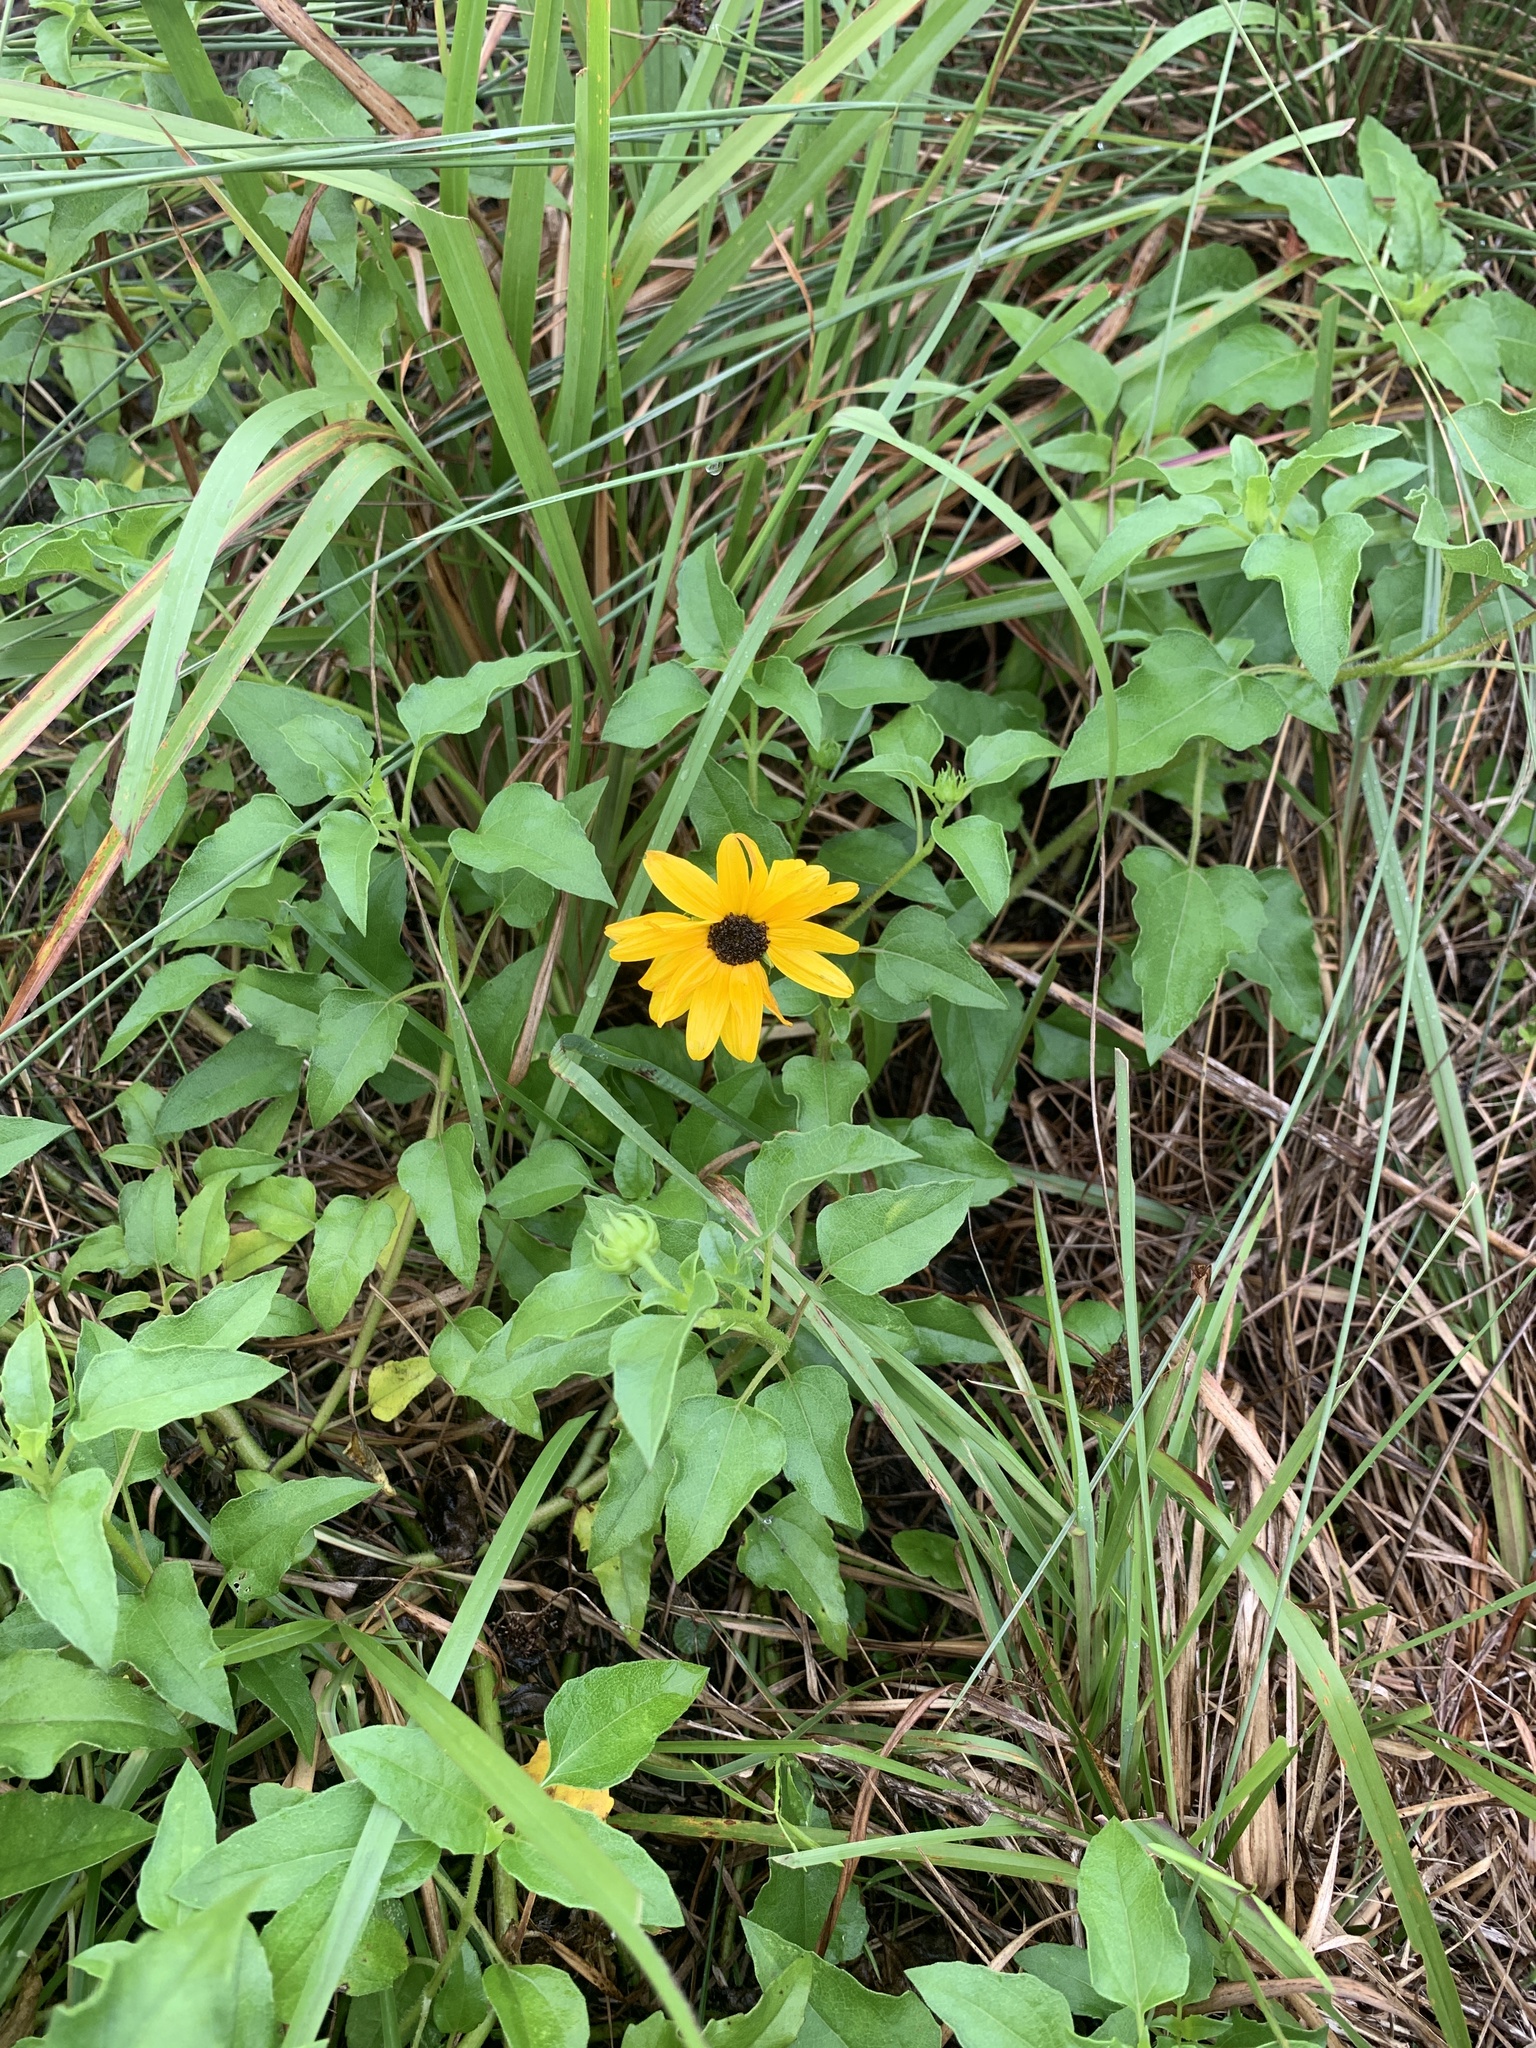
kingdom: Plantae
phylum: Tracheophyta
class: Magnoliopsida
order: Asterales
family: Asteraceae
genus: Helianthus
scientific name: Helianthus debilis
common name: Weak sunflower
